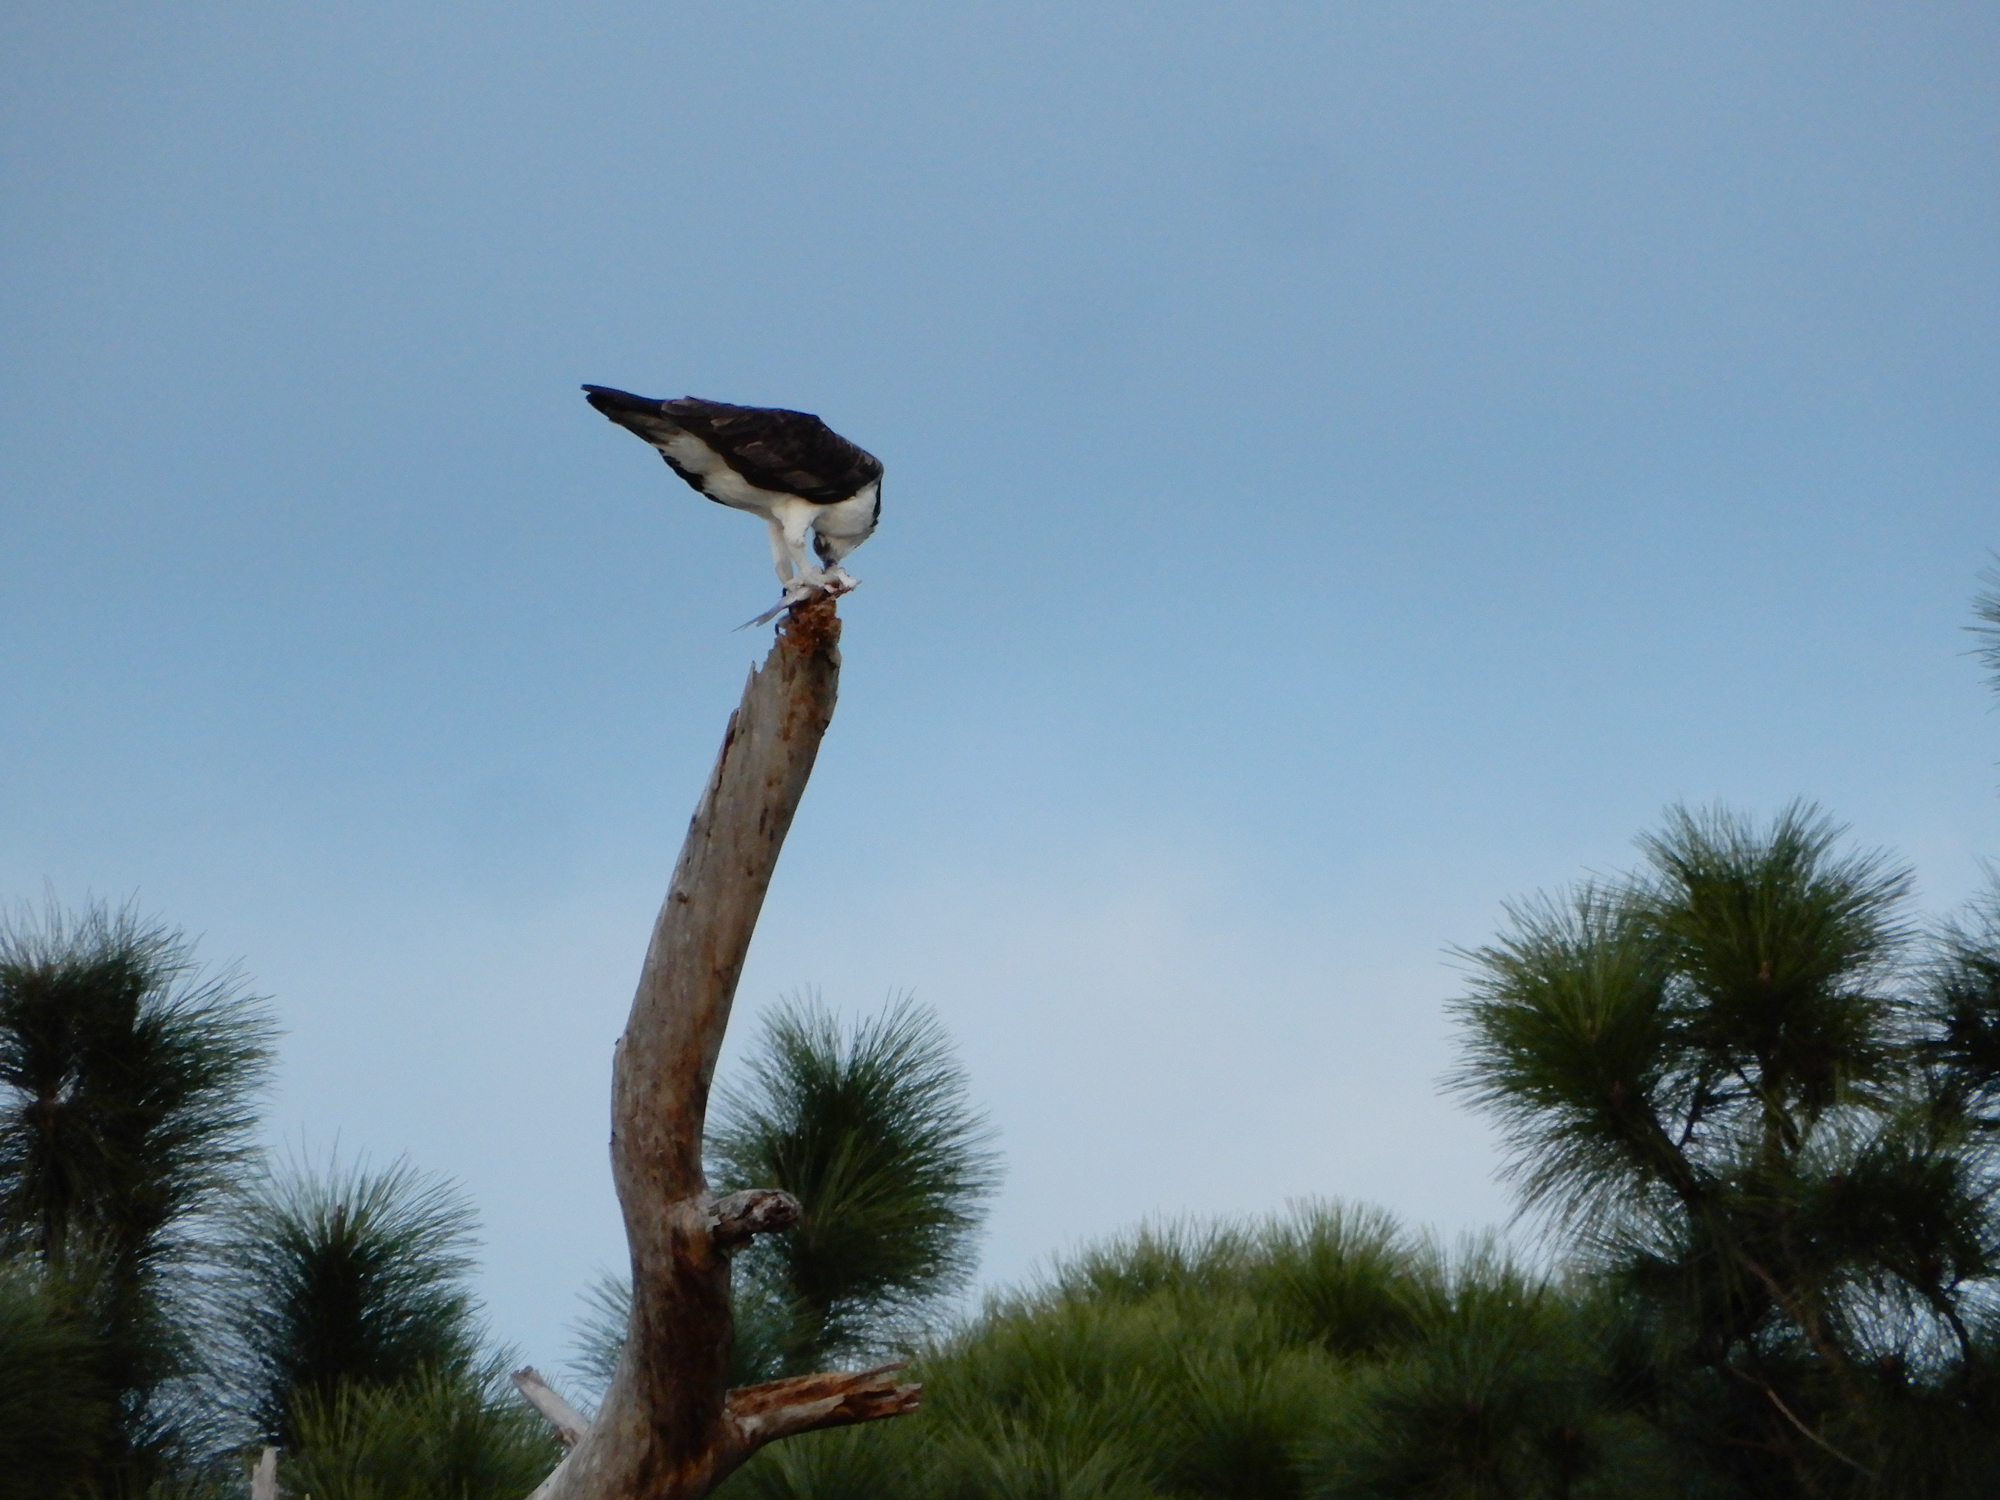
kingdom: Animalia
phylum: Chordata
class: Aves
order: Accipitriformes
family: Pandionidae
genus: Pandion
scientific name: Pandion haliaetus
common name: Osprey
